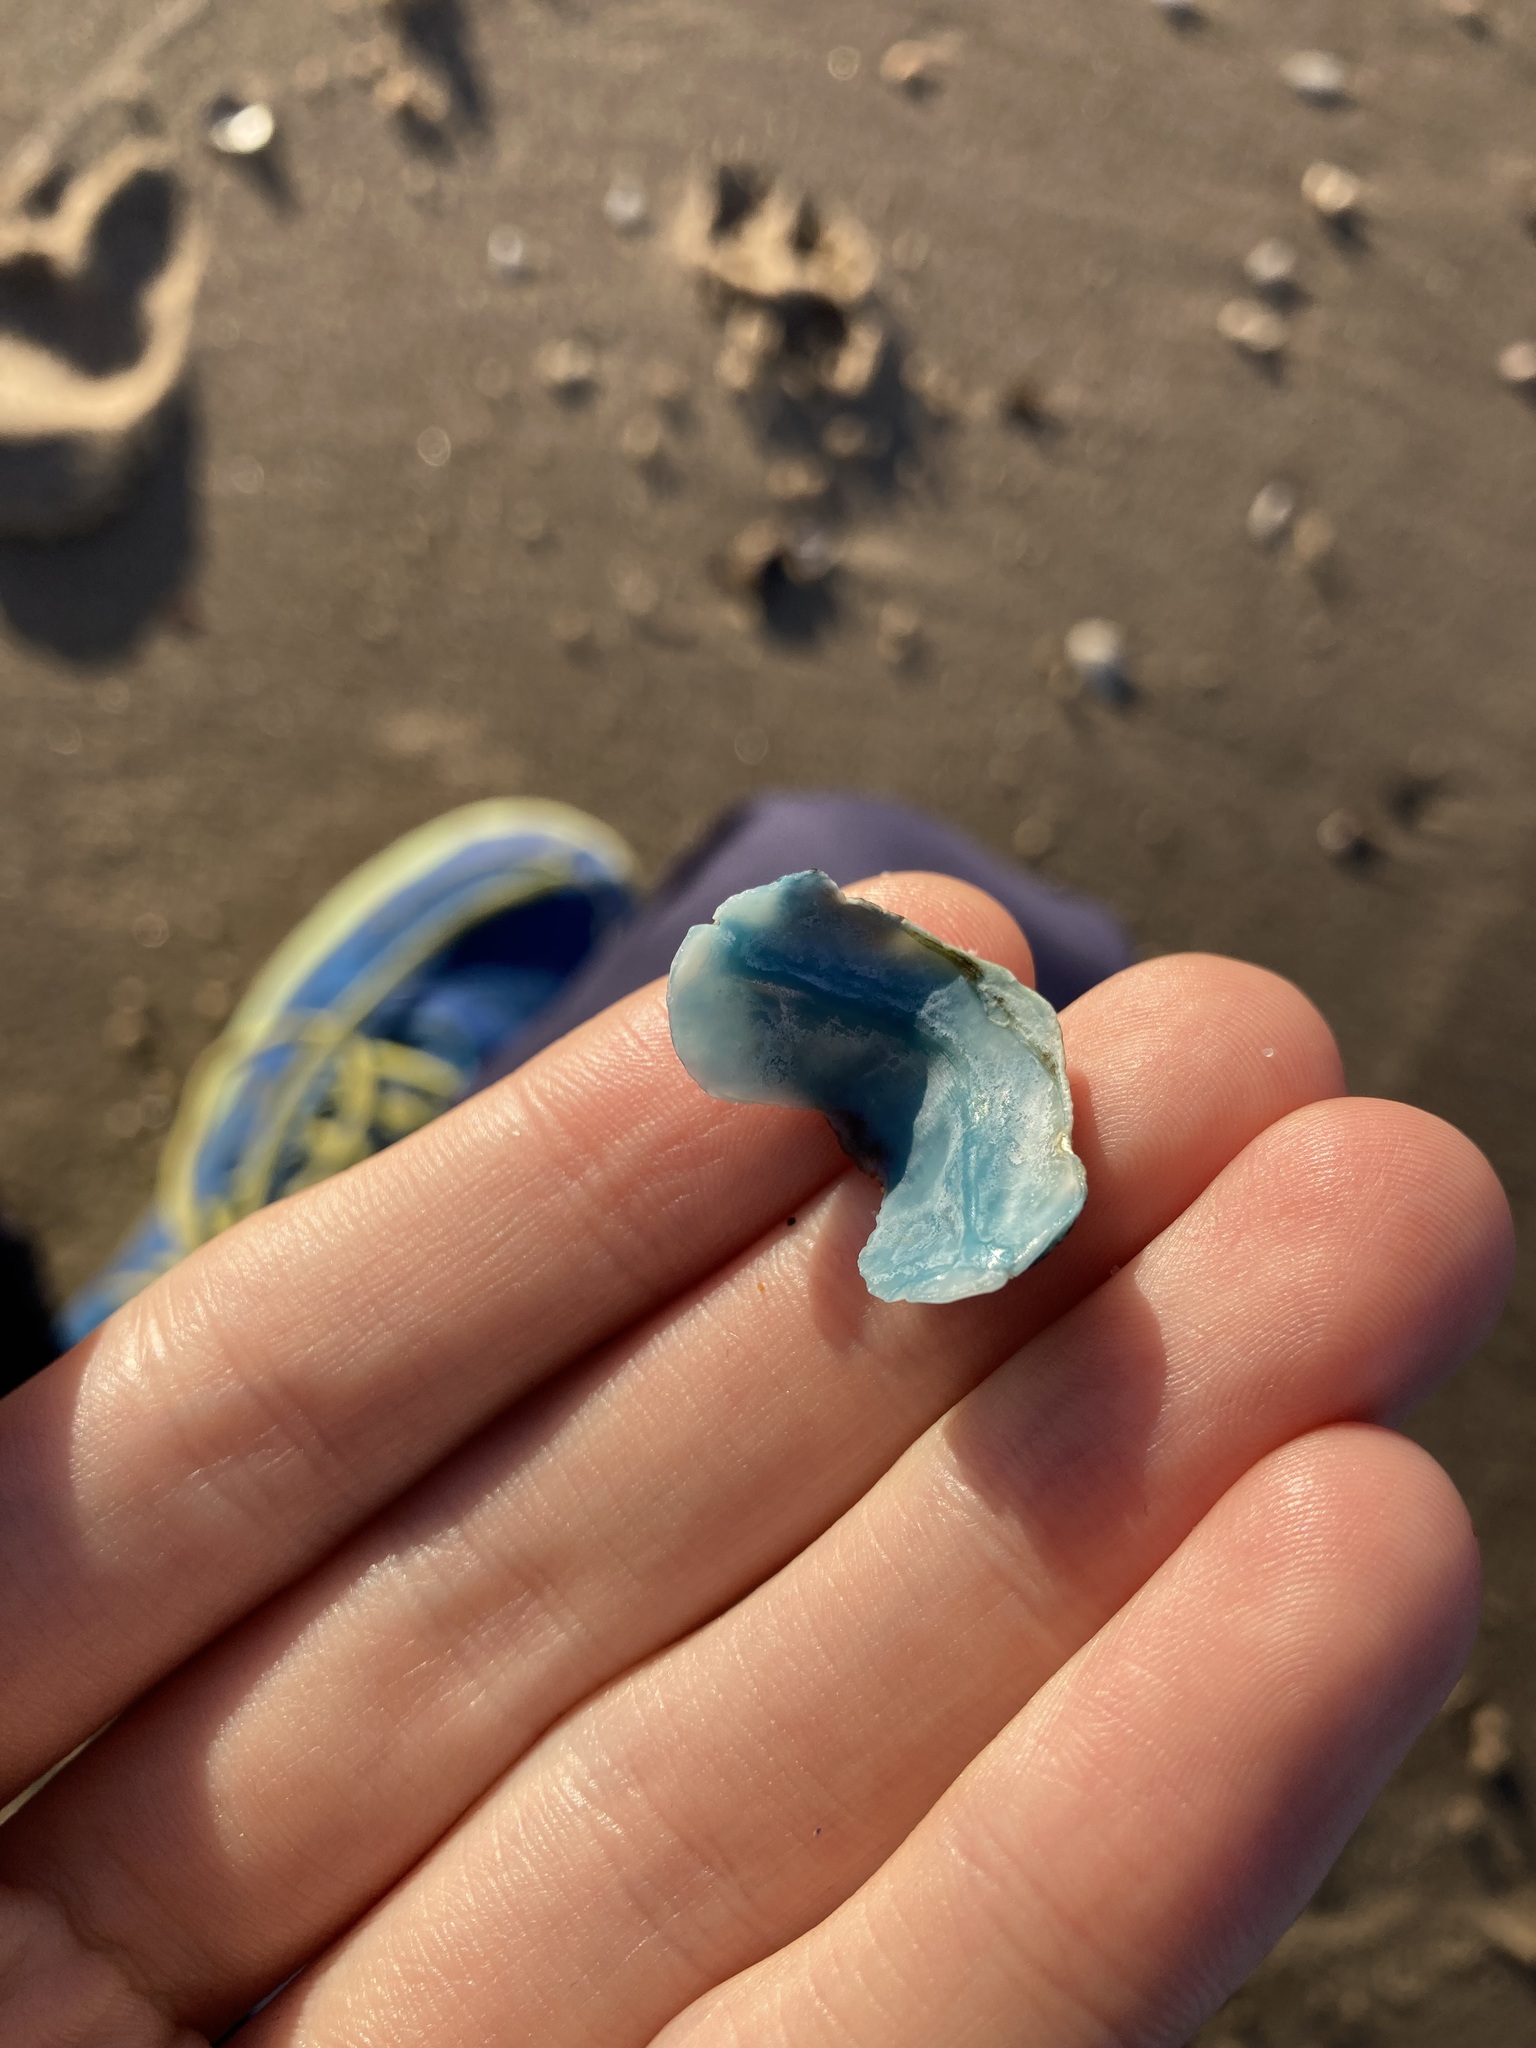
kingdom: Animalia
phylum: Mollusca
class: Polyplacophora
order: Chitonida
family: Mopaliidae
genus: Plaxiphora
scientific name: Plaxiphora albida
